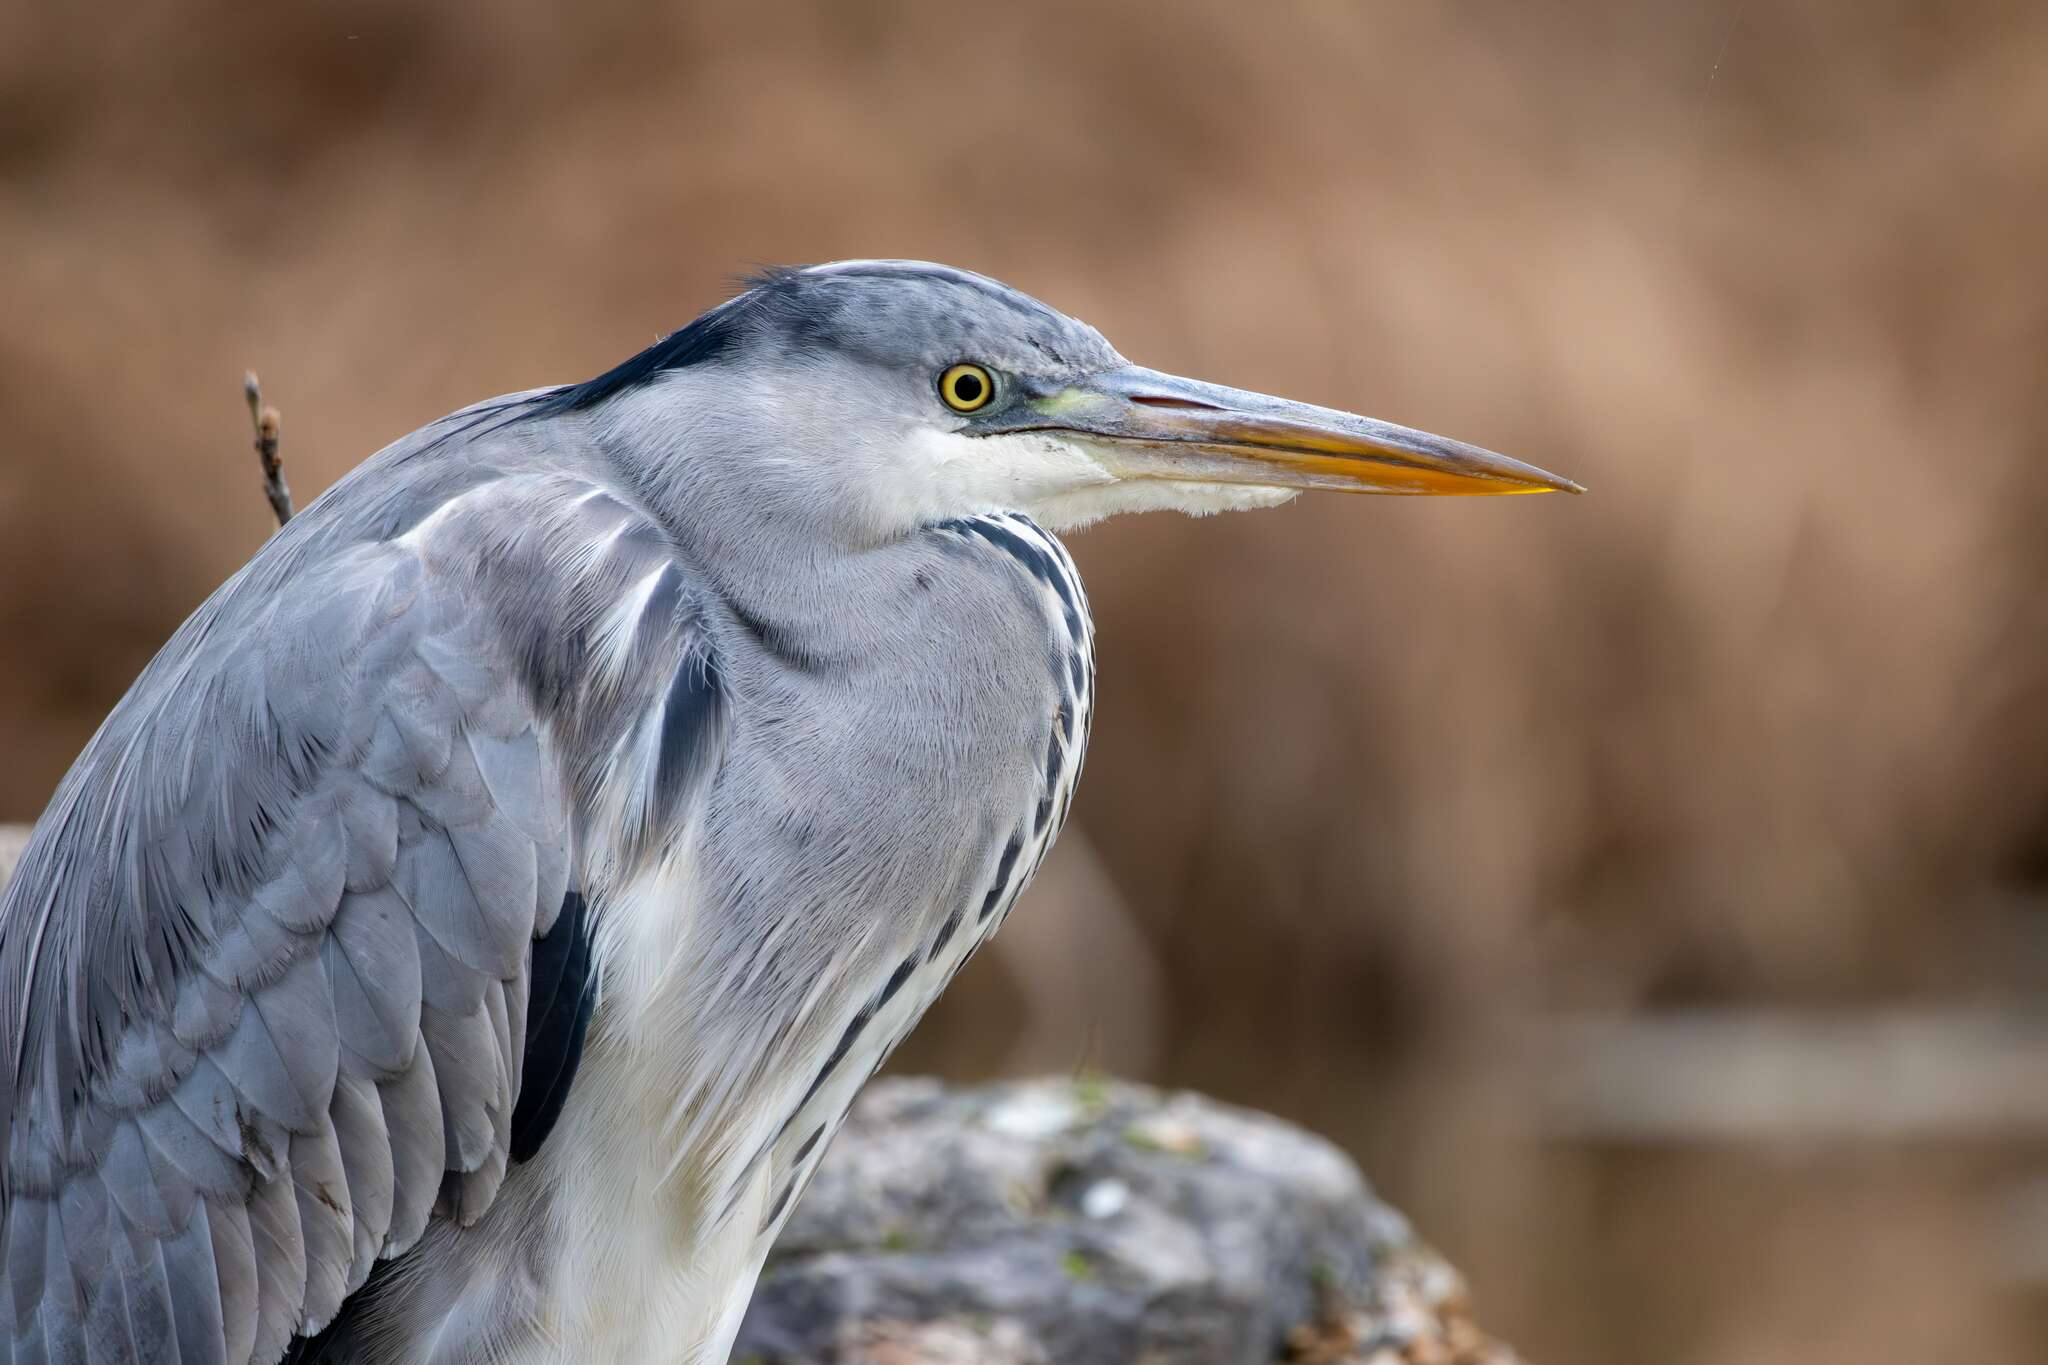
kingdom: Animalia
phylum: Chordata
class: Aves
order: Pelecaniformes
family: Ardeidae
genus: Ardea
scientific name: Ardea cinerea
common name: Grey heron
